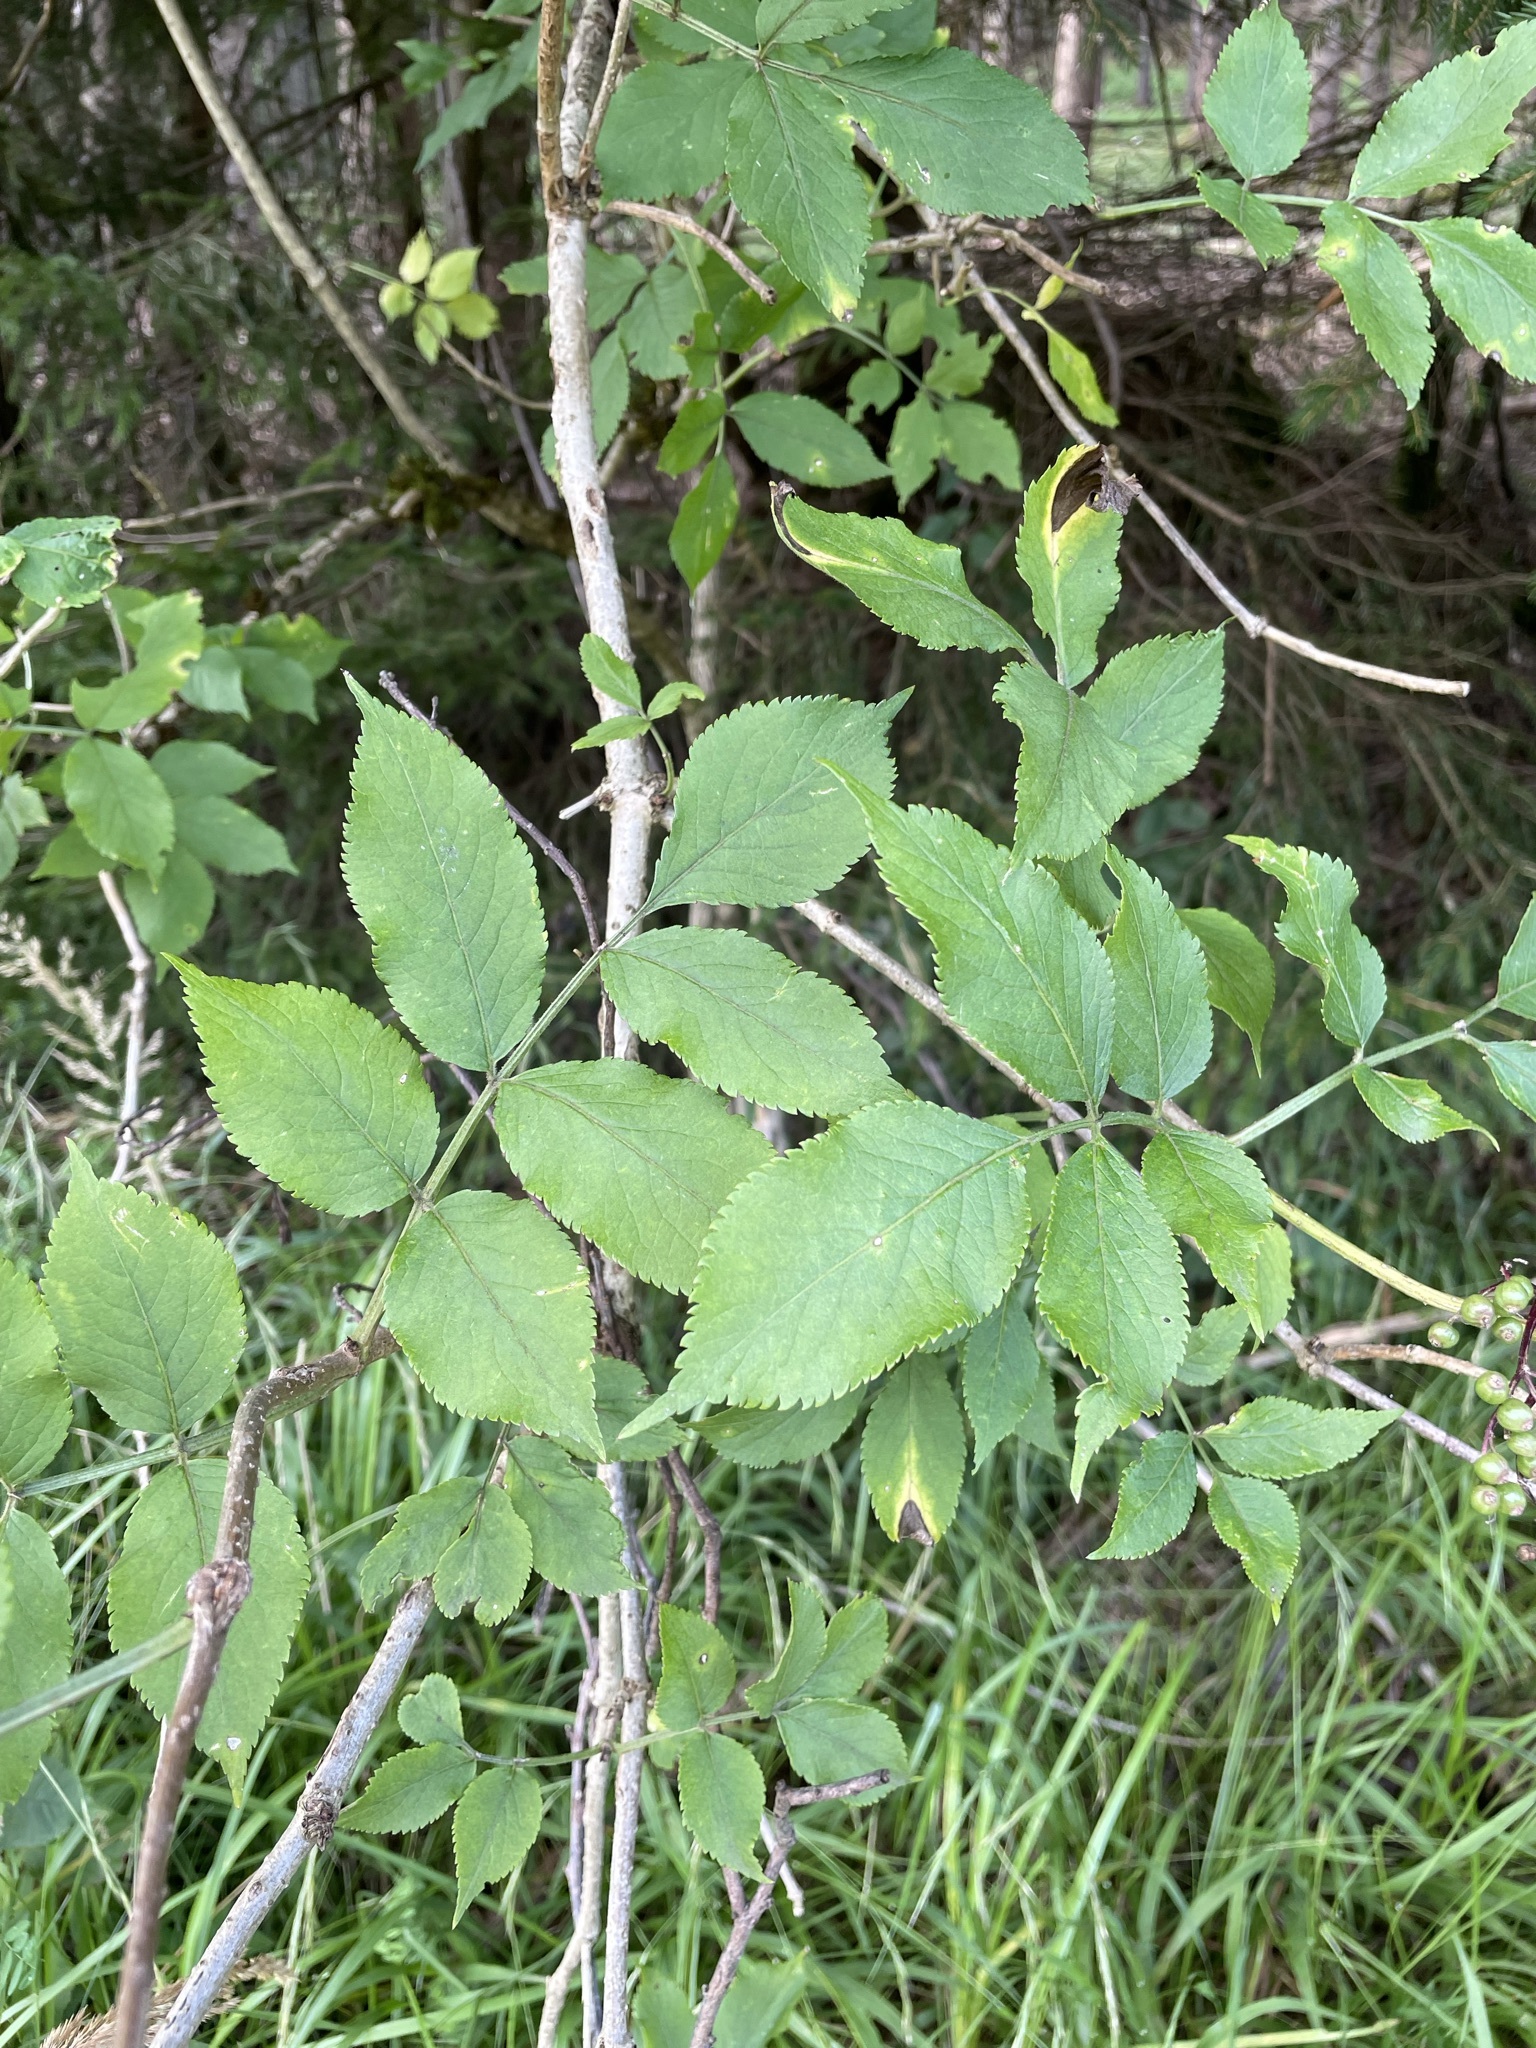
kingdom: Plantae
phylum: Tracheophyta
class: Magnoliopsida
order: Dipsacales
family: Viburnaceae
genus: Sambucus
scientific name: Sambucus nigra
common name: Elder
